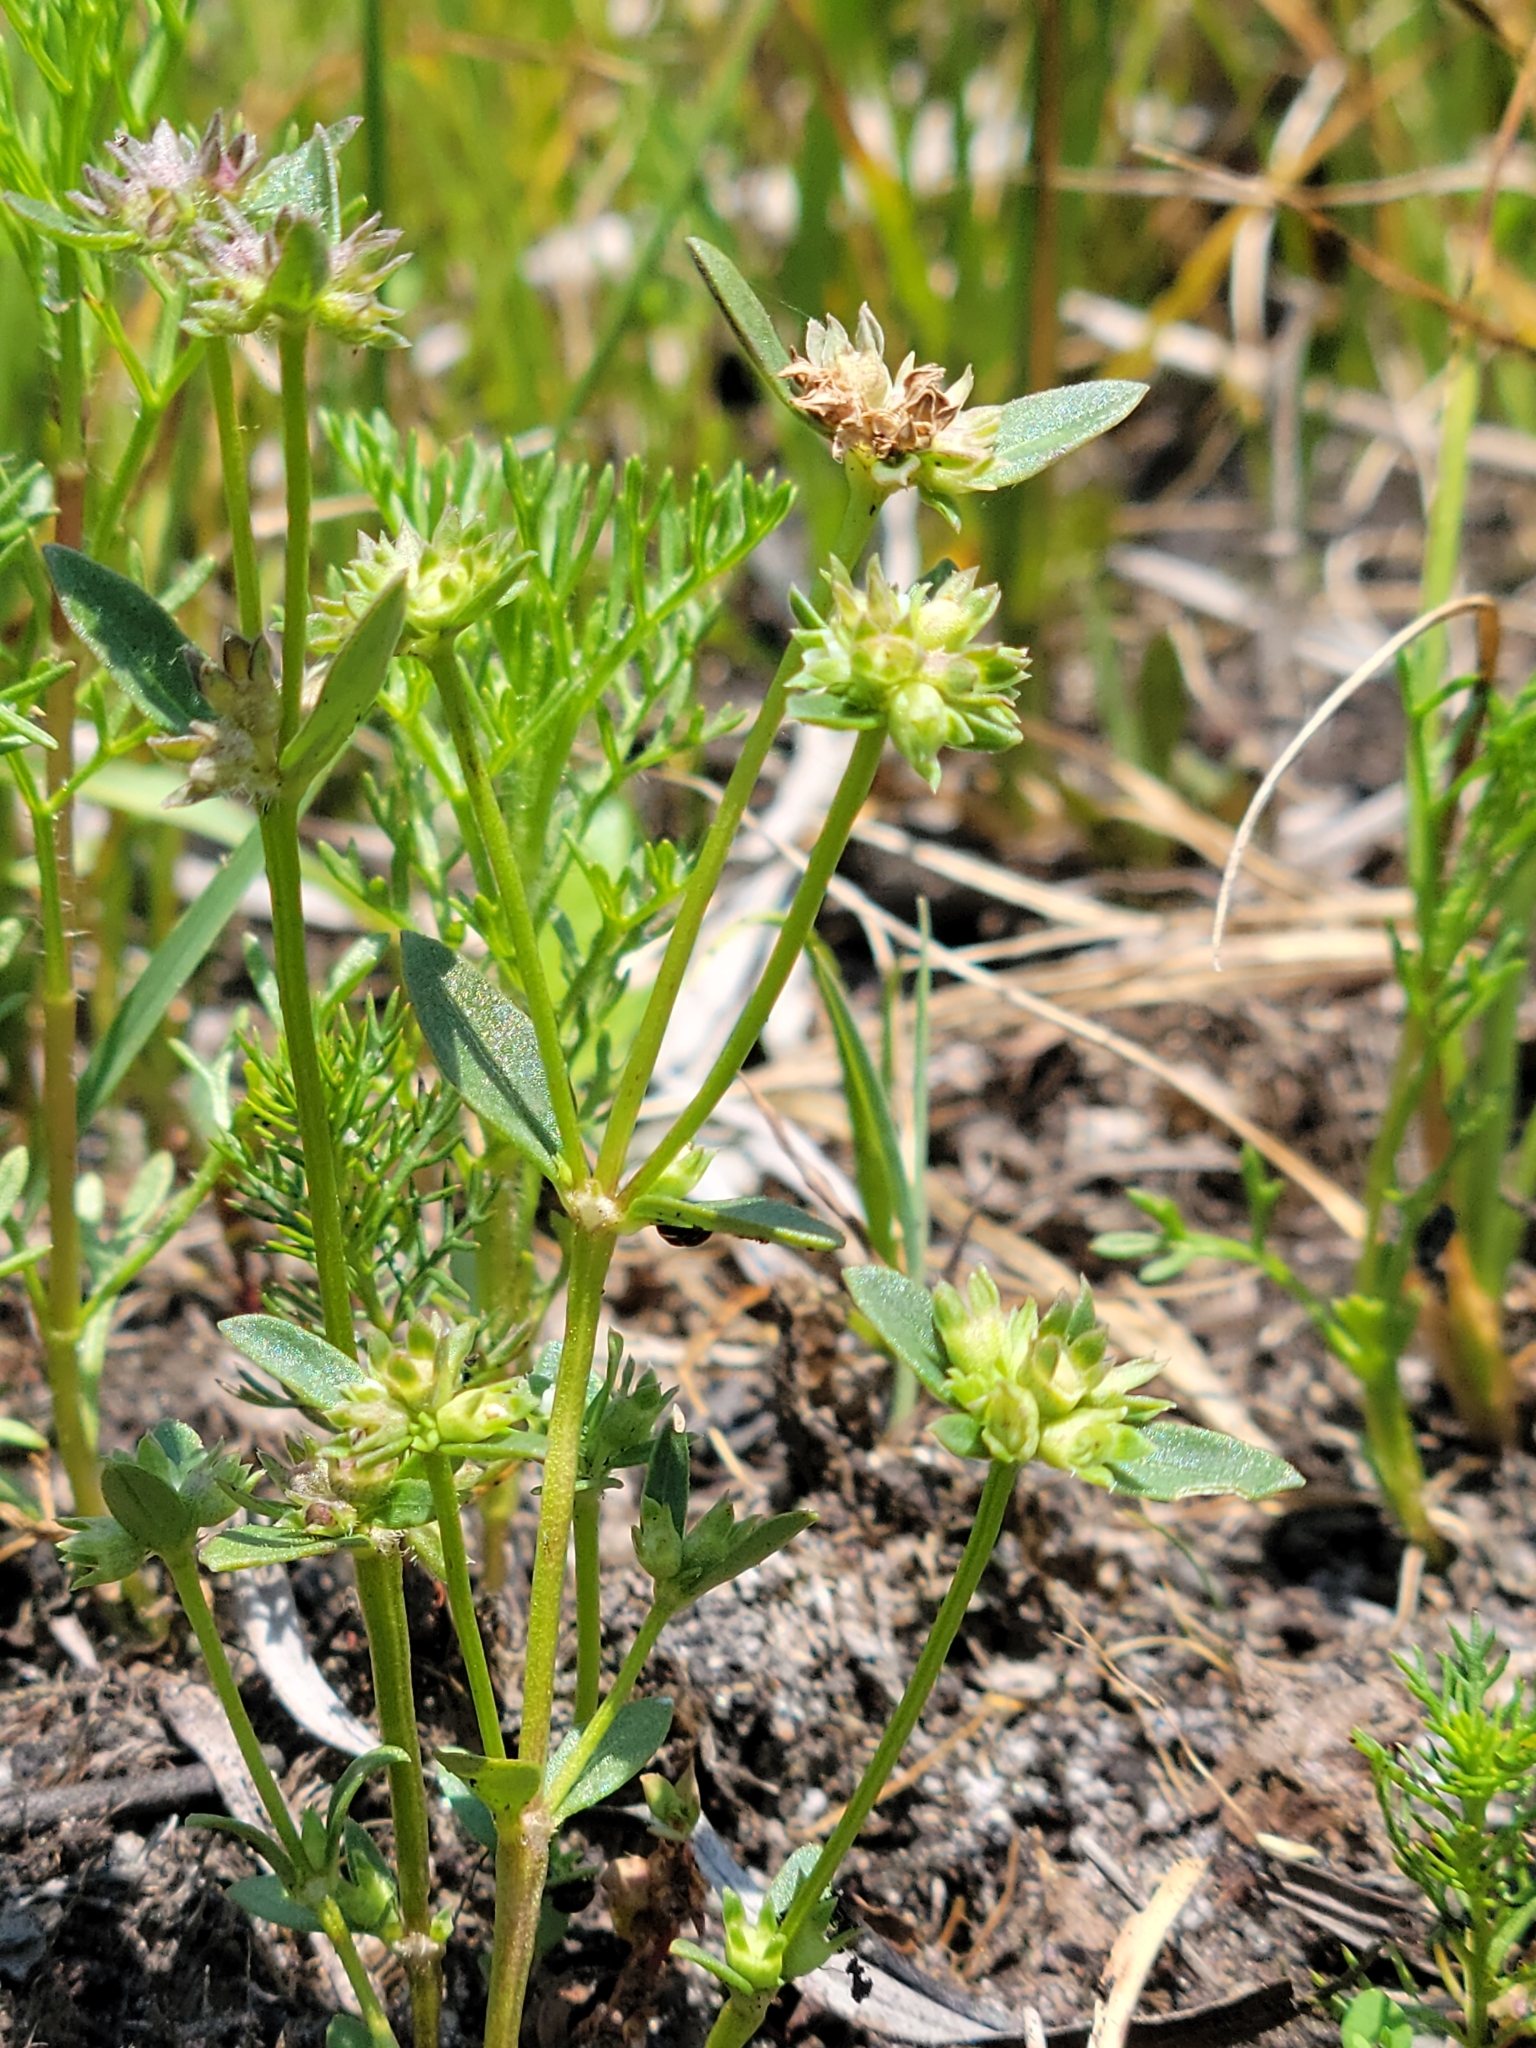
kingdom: Plantae
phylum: Tracheophyta
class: Magnoliopsida
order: Gentianales
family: Rubiaceae
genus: Edrastima
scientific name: Edrastima uniflora
